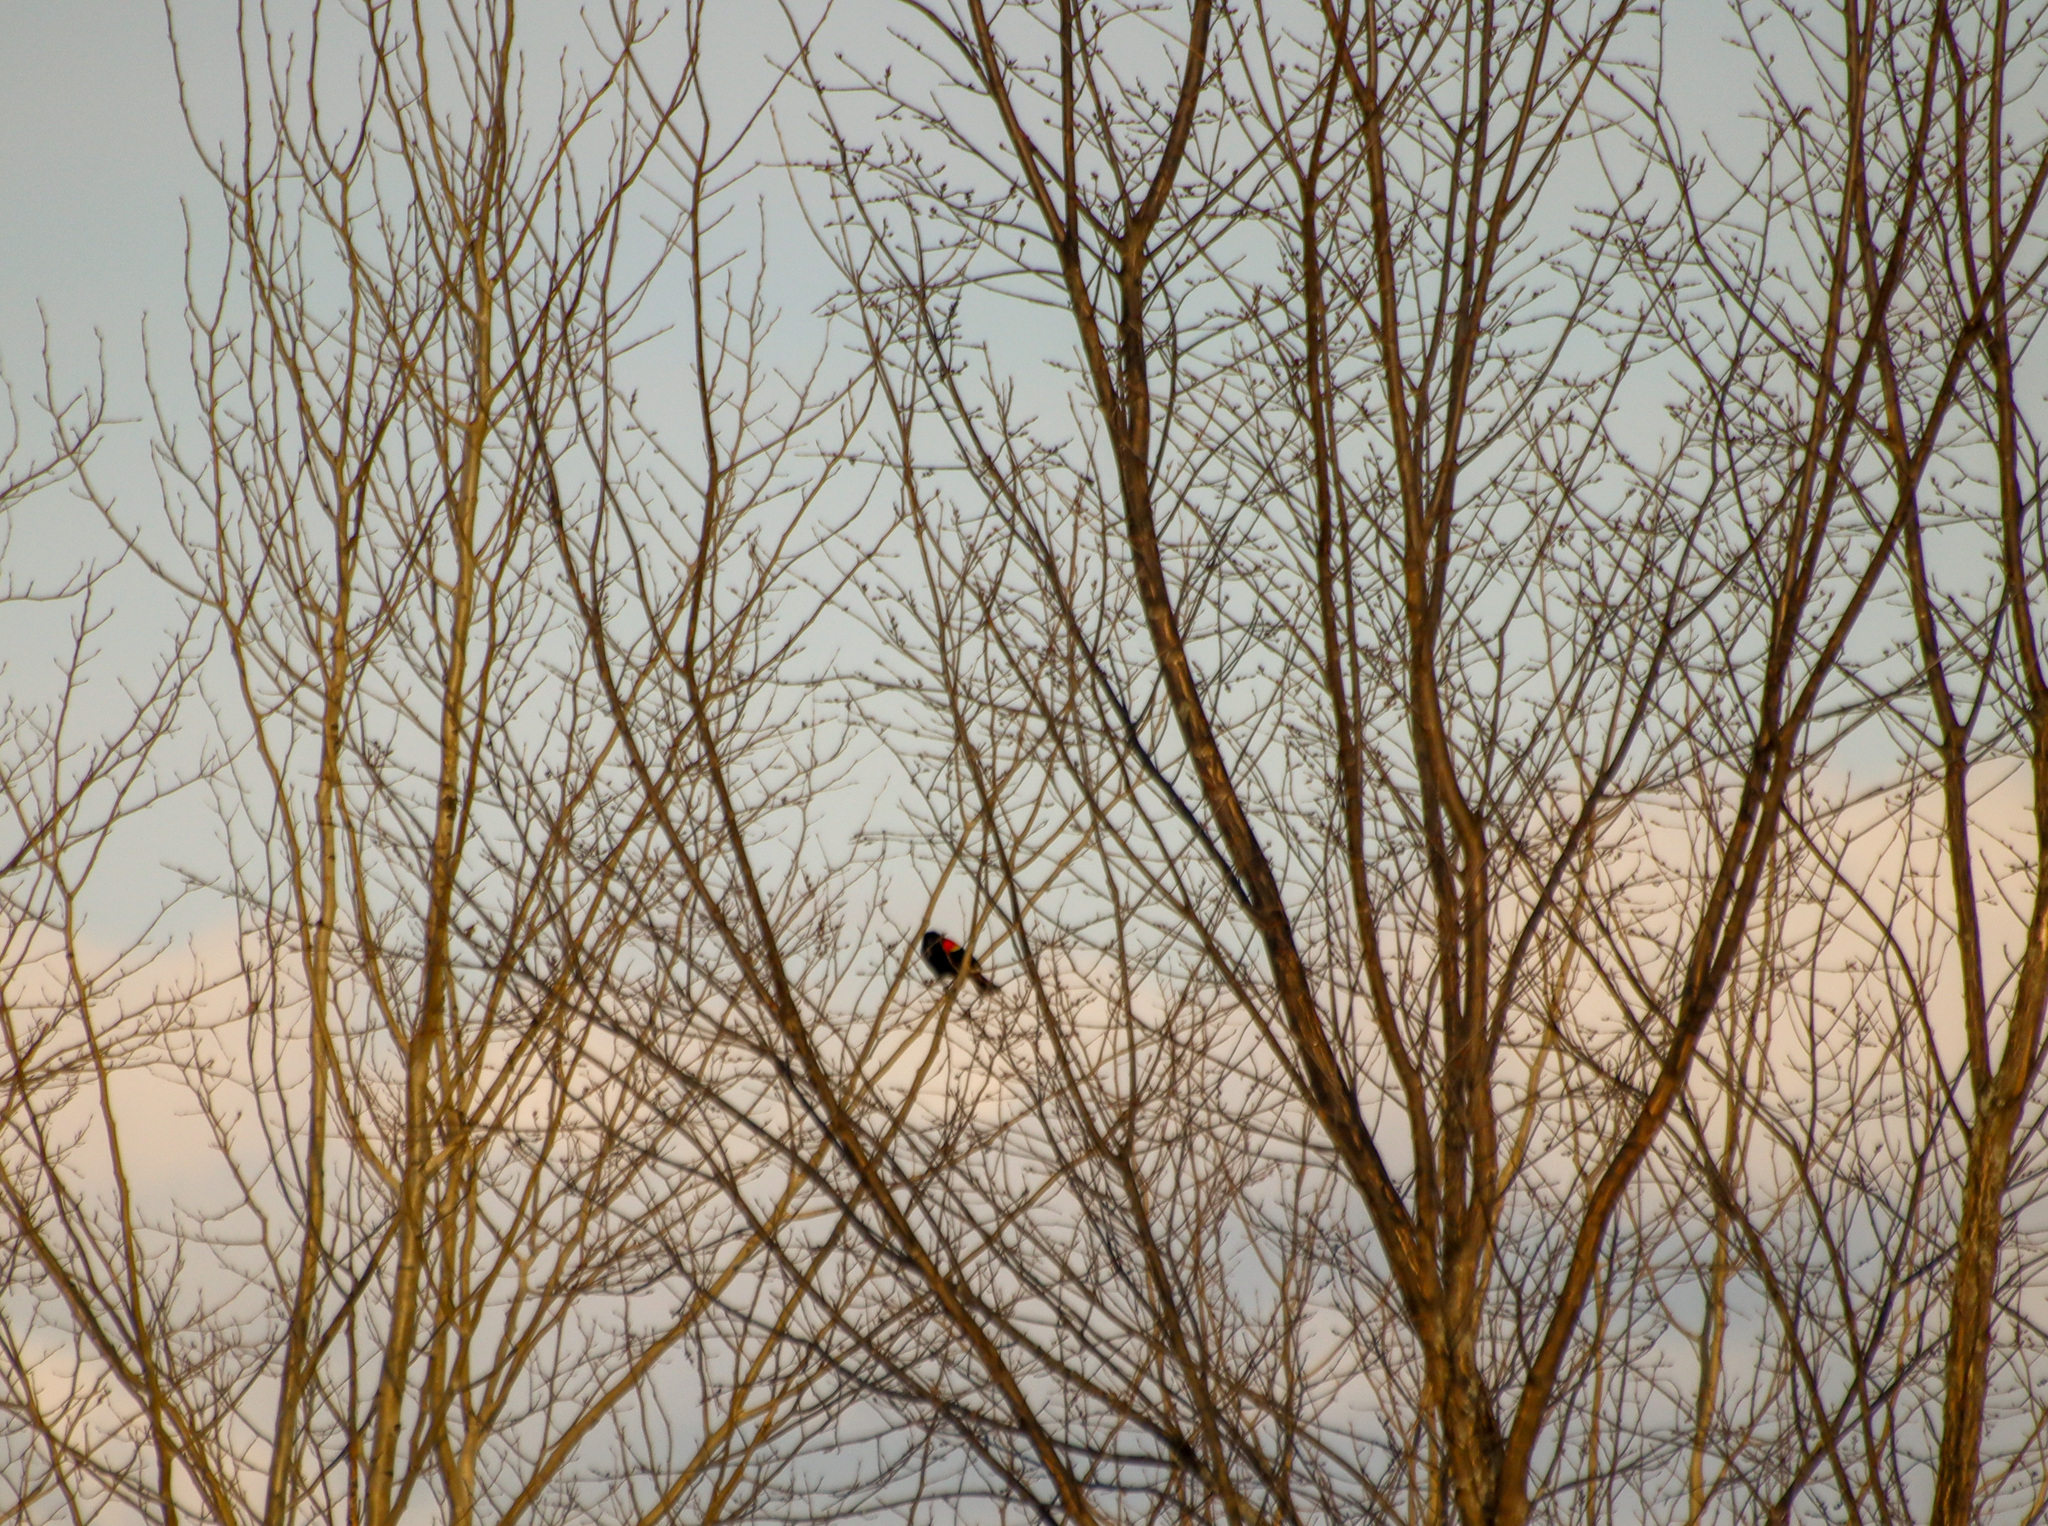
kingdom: Animalia
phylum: Chordata
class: Aves
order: Passeriformes
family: Icteridae
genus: Agelaius
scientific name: Agelaius phoeniceus
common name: Red-winged blackbird
